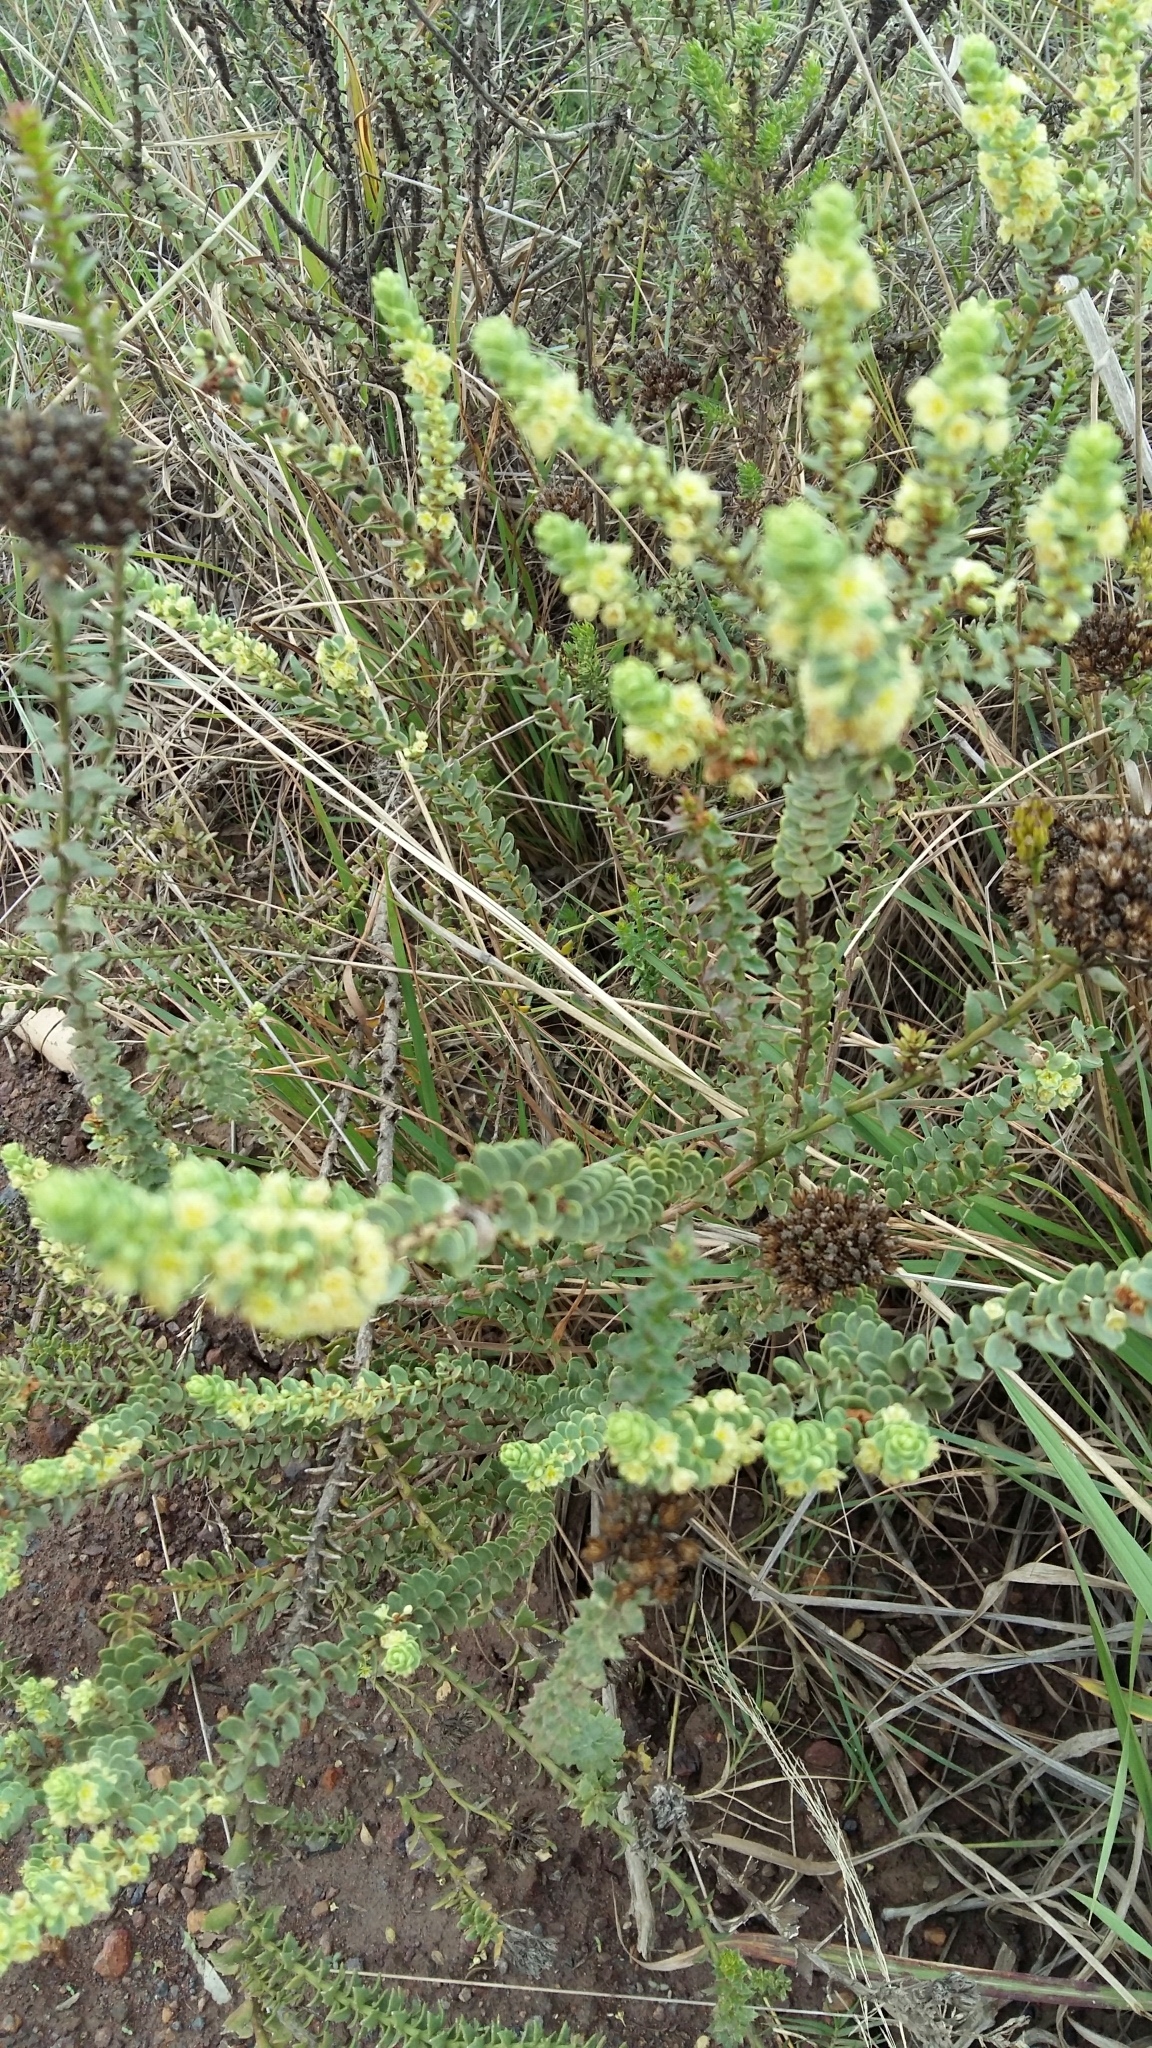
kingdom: Plantae
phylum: Tracheophyta
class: Magnoliopsida
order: Malpighiales
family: Peraceae
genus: Clutia
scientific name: Clutia alaternoides
